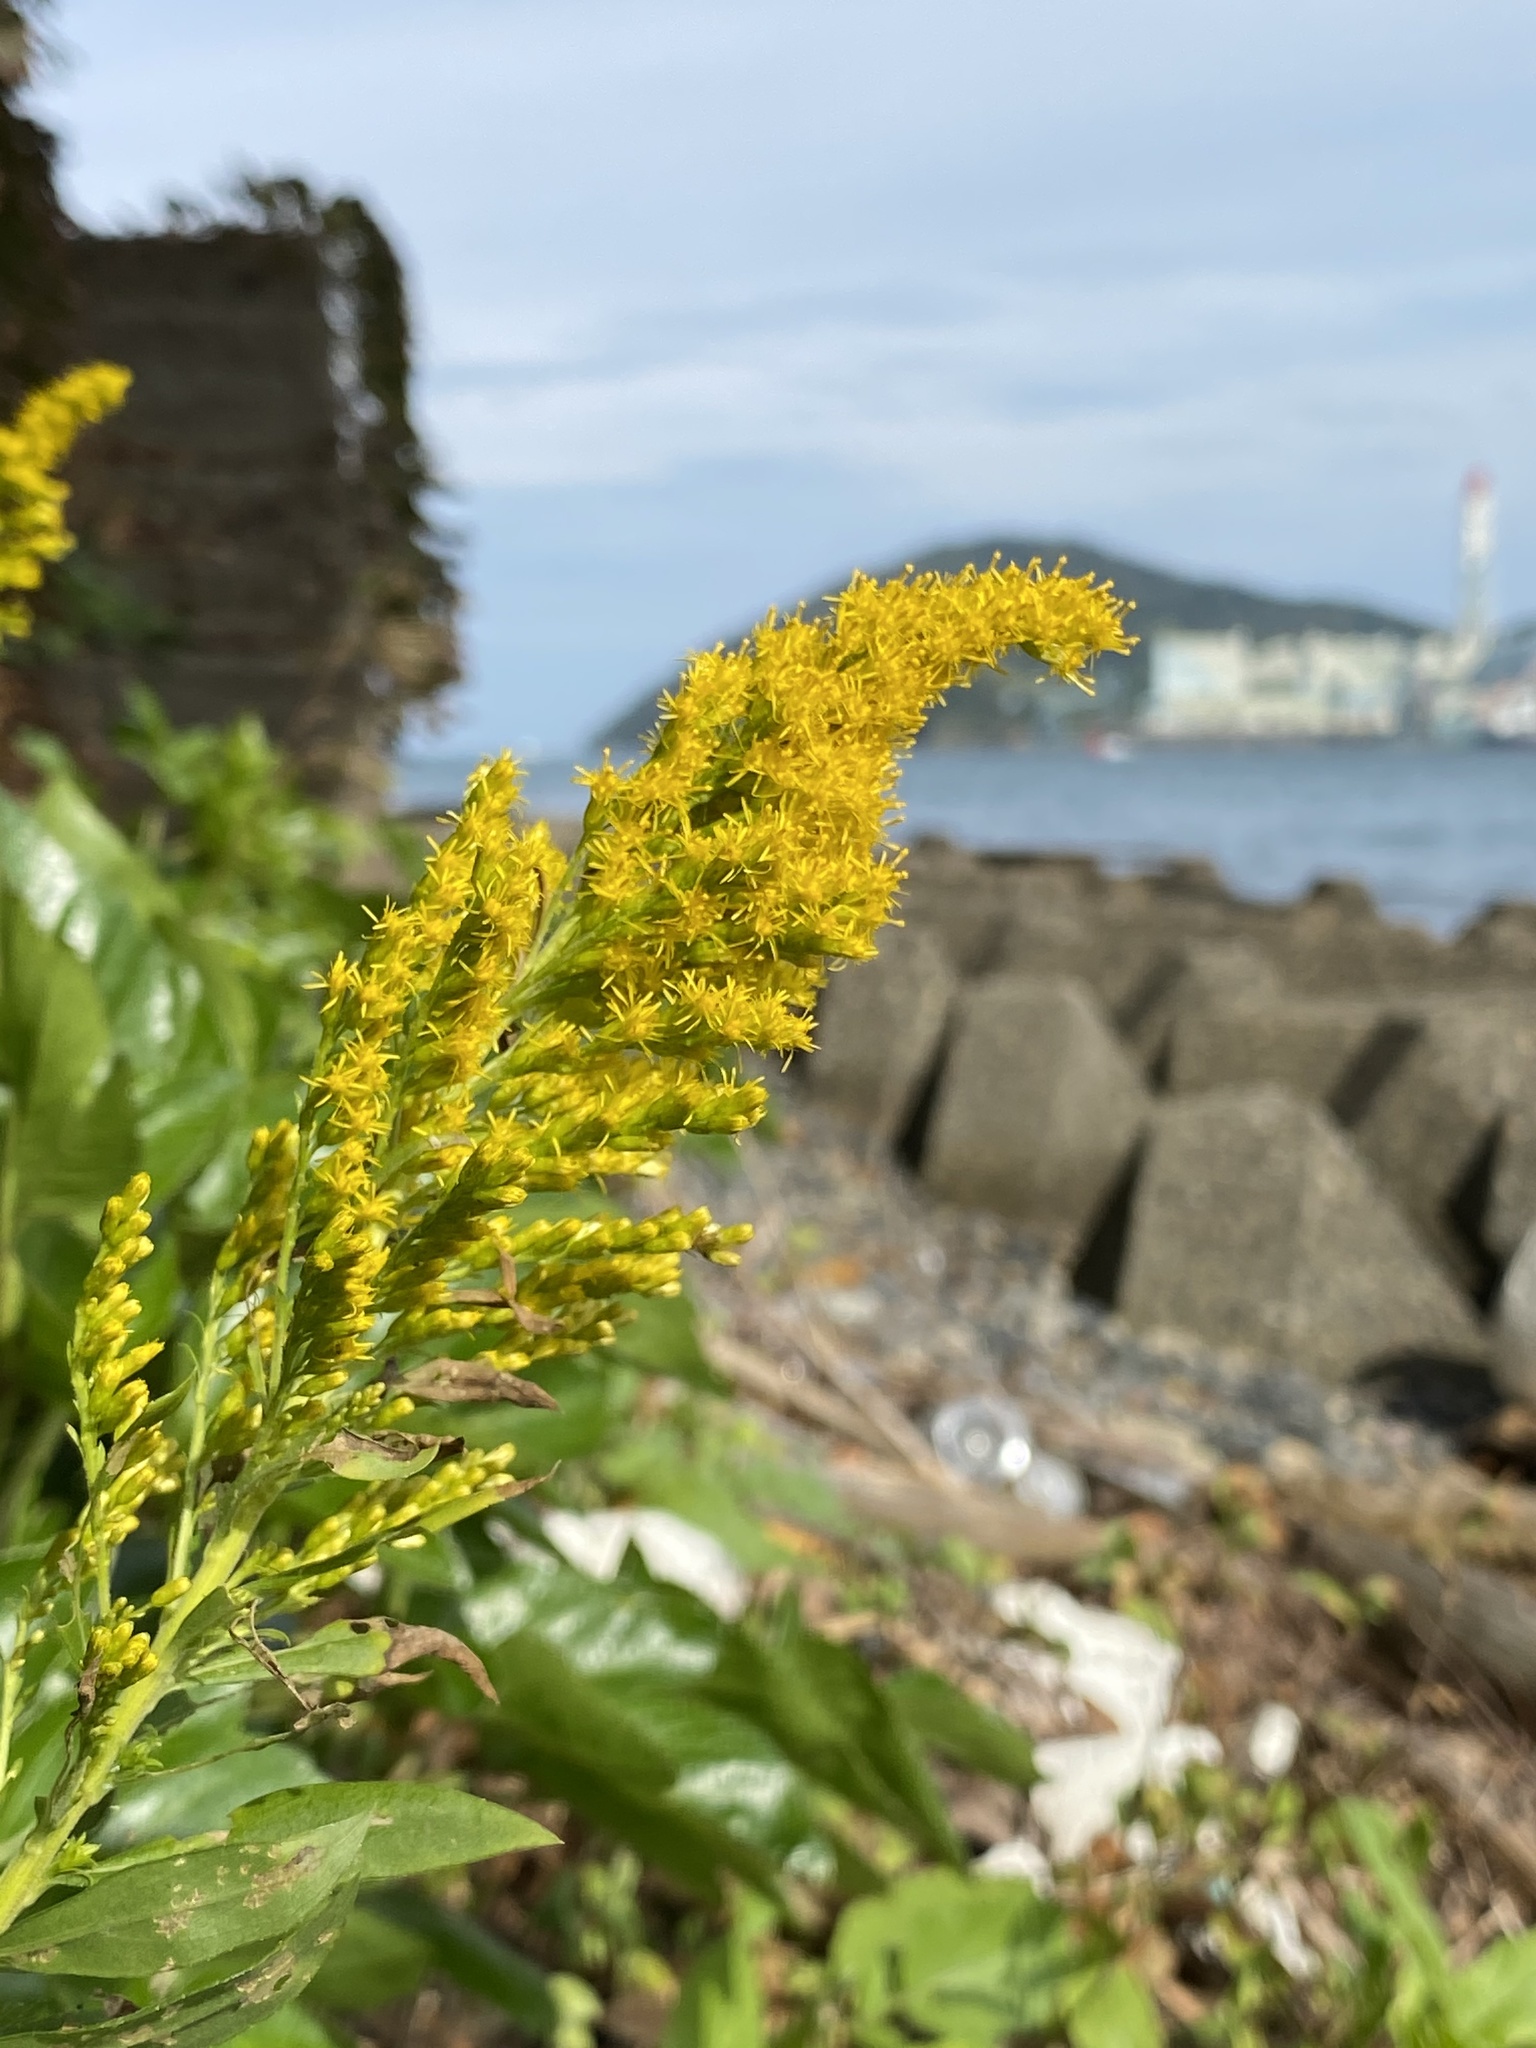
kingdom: Plantae
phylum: Tracheophyta
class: Magnoliopsida
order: Asterales
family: Asteraceae
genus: Solidago
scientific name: Solidago altissima
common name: Late goldenrod
